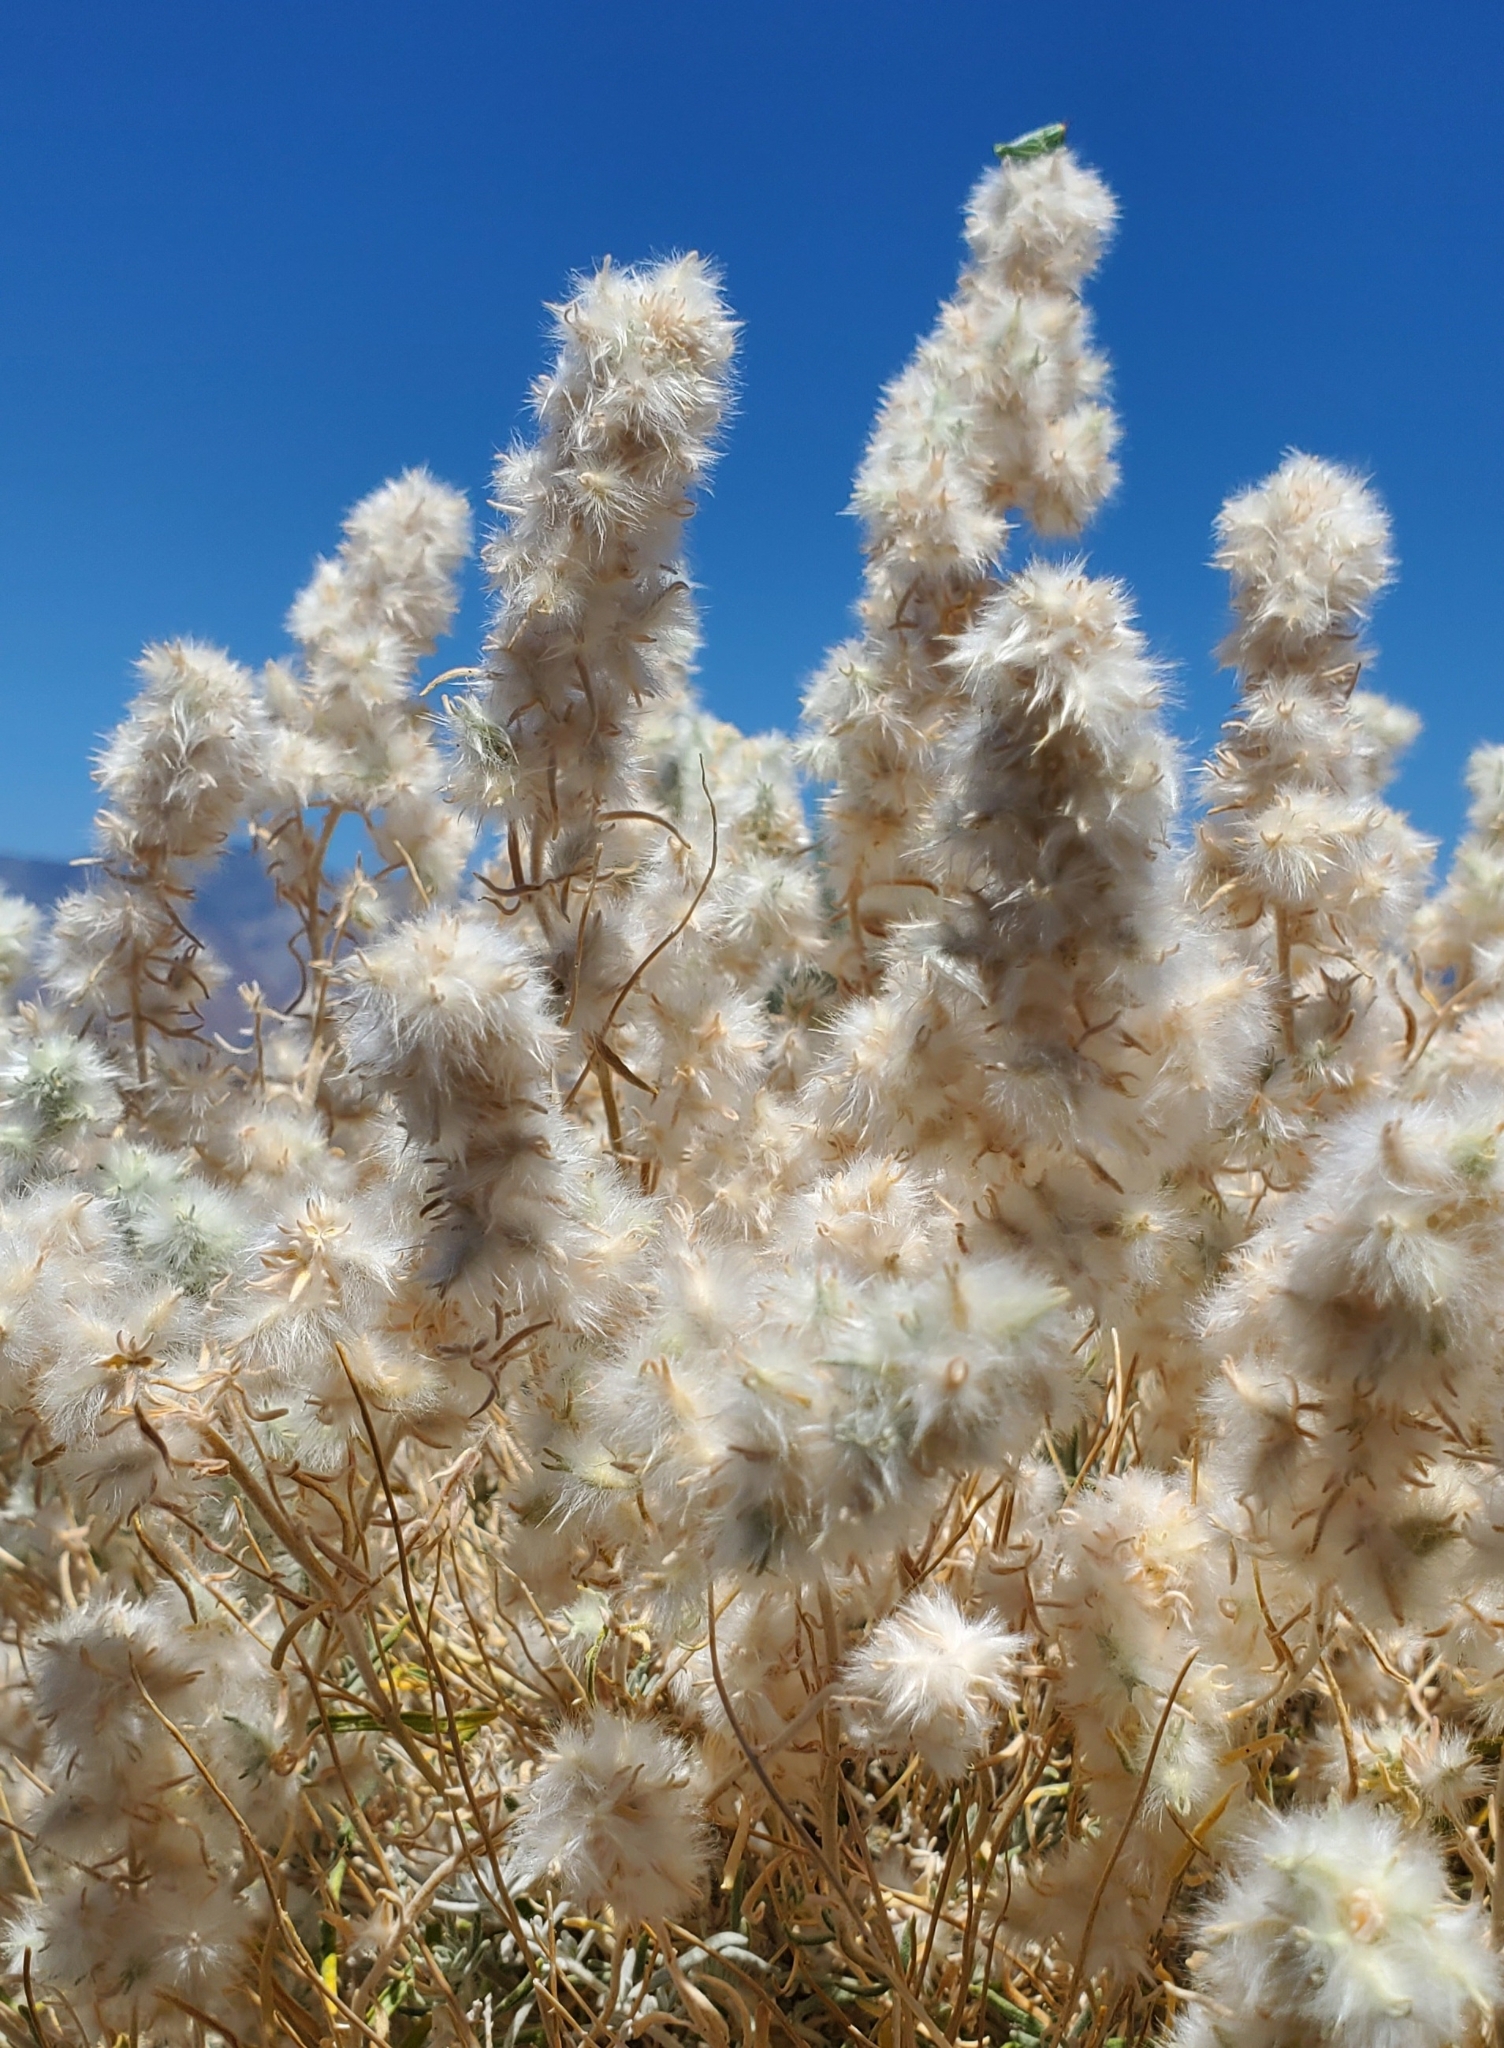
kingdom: Plantae
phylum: Tracheophyta
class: Magnoliopsida
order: Caryophyllales
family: Amaranthaceae
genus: Krascheninnikovia
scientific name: Krascheninnikovia lanata
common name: Winterfat
